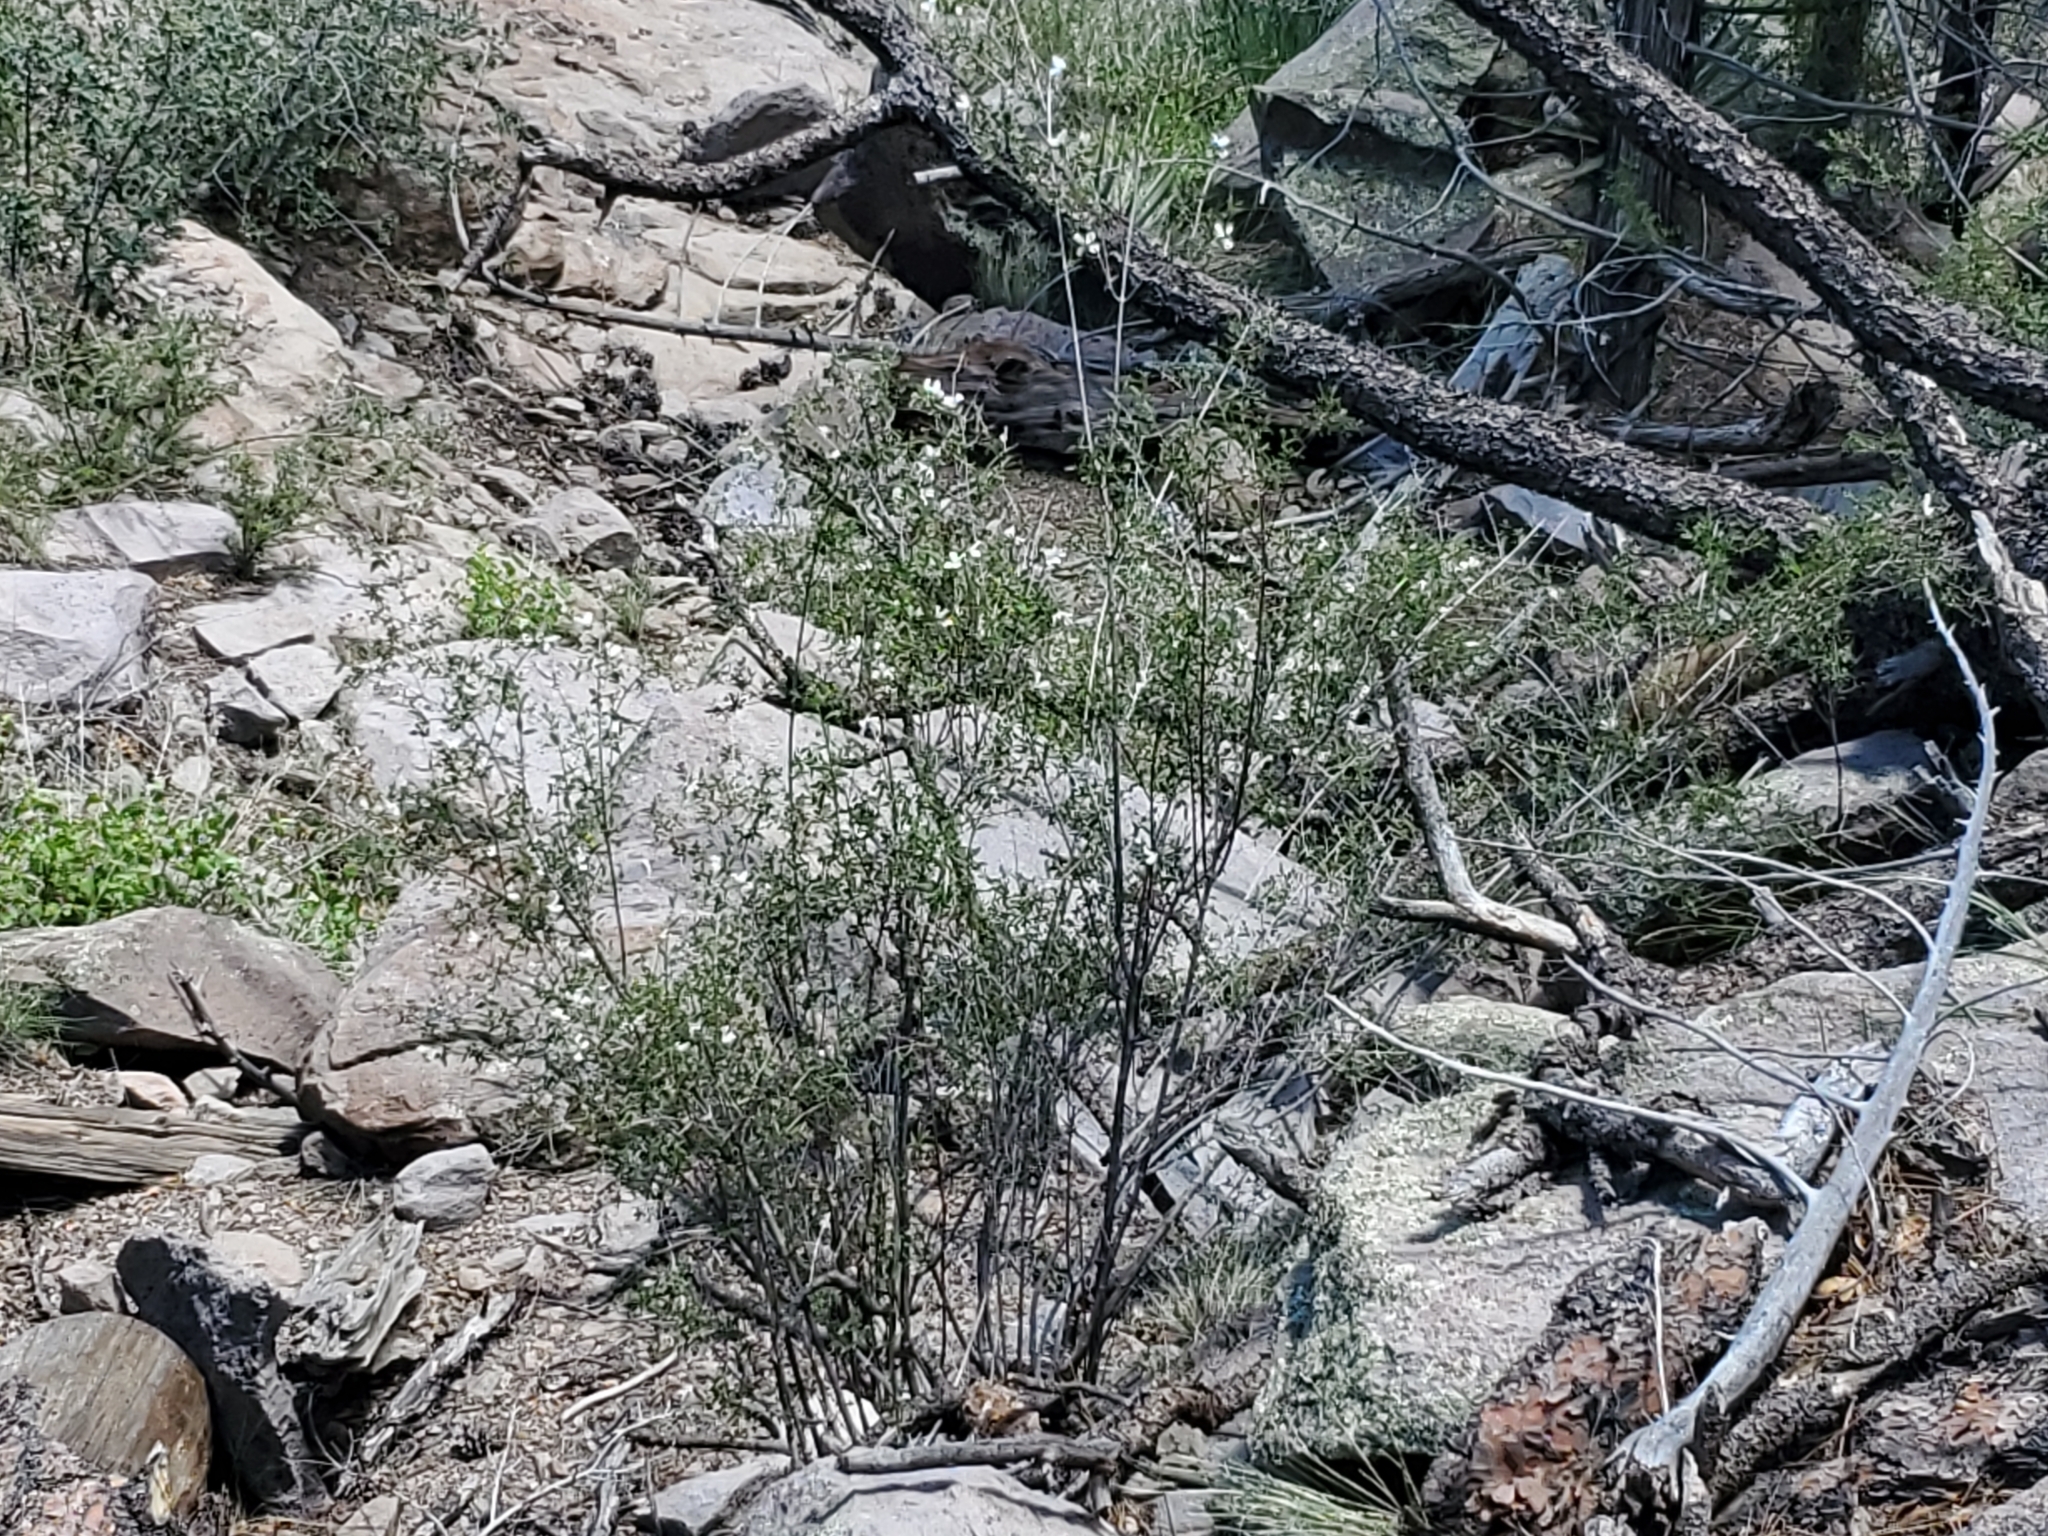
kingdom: Plantae
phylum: Tracheophyta
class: Magnoliopsida
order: Cornales
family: Hydrangeaceae
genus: Philadelphus
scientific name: Philadelphus microphyllus
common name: Desert mock orange
